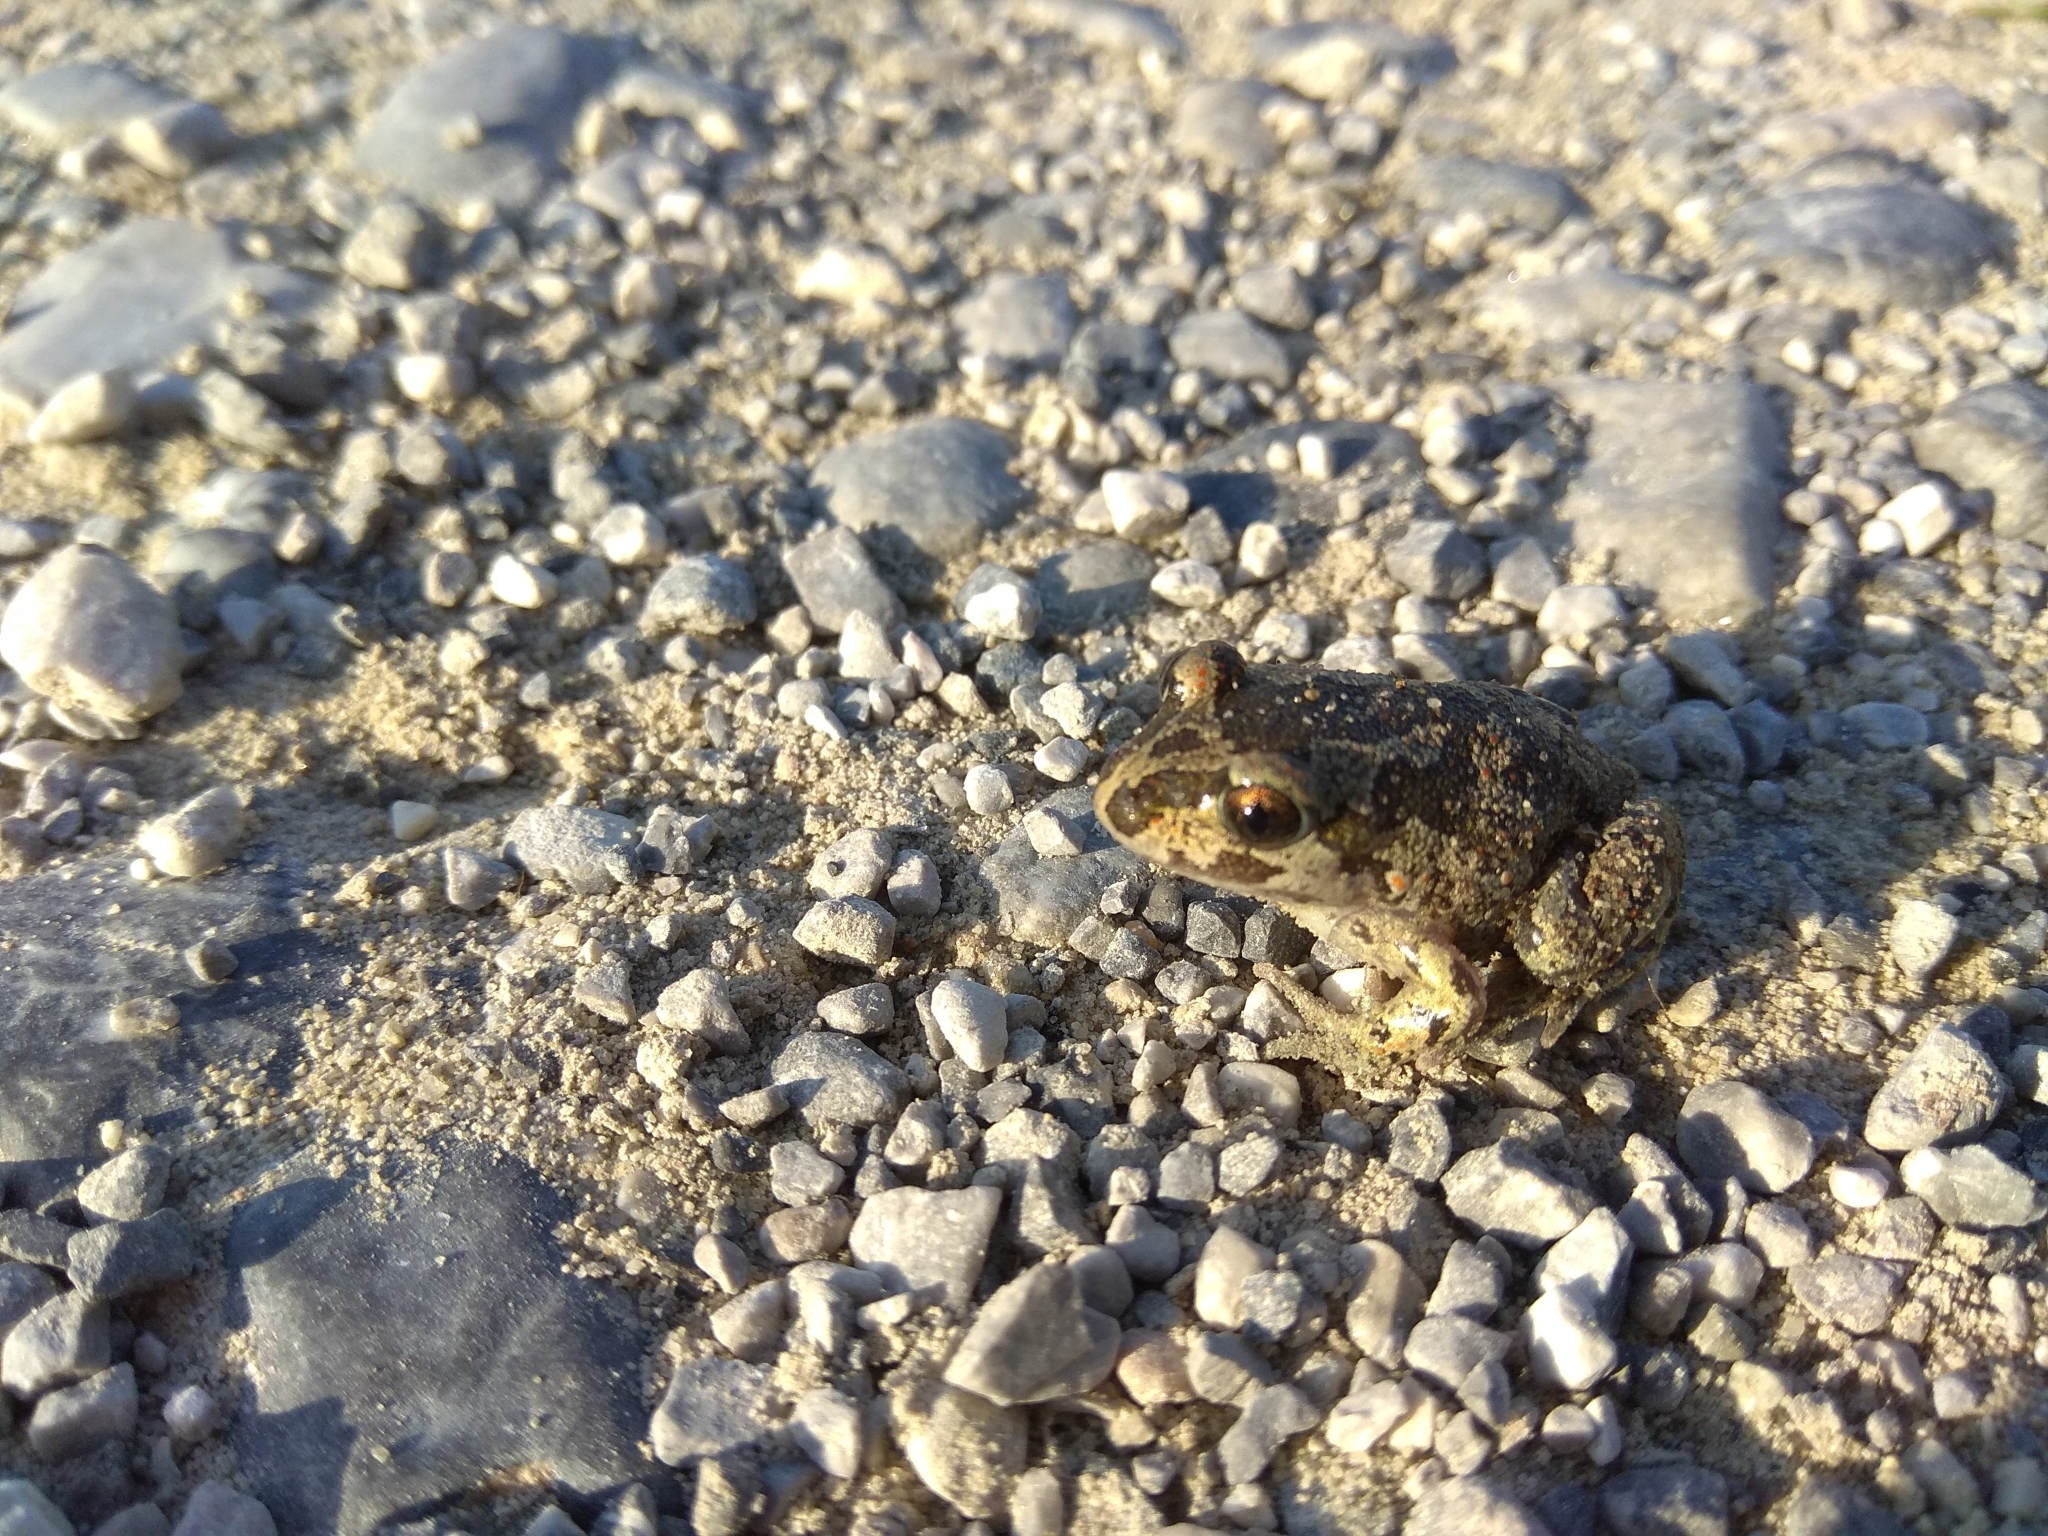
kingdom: Animalia
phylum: Chordata
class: Amphibia
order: Anura
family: Pelobatidae
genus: Pelobates
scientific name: Pelobates balcanicus
